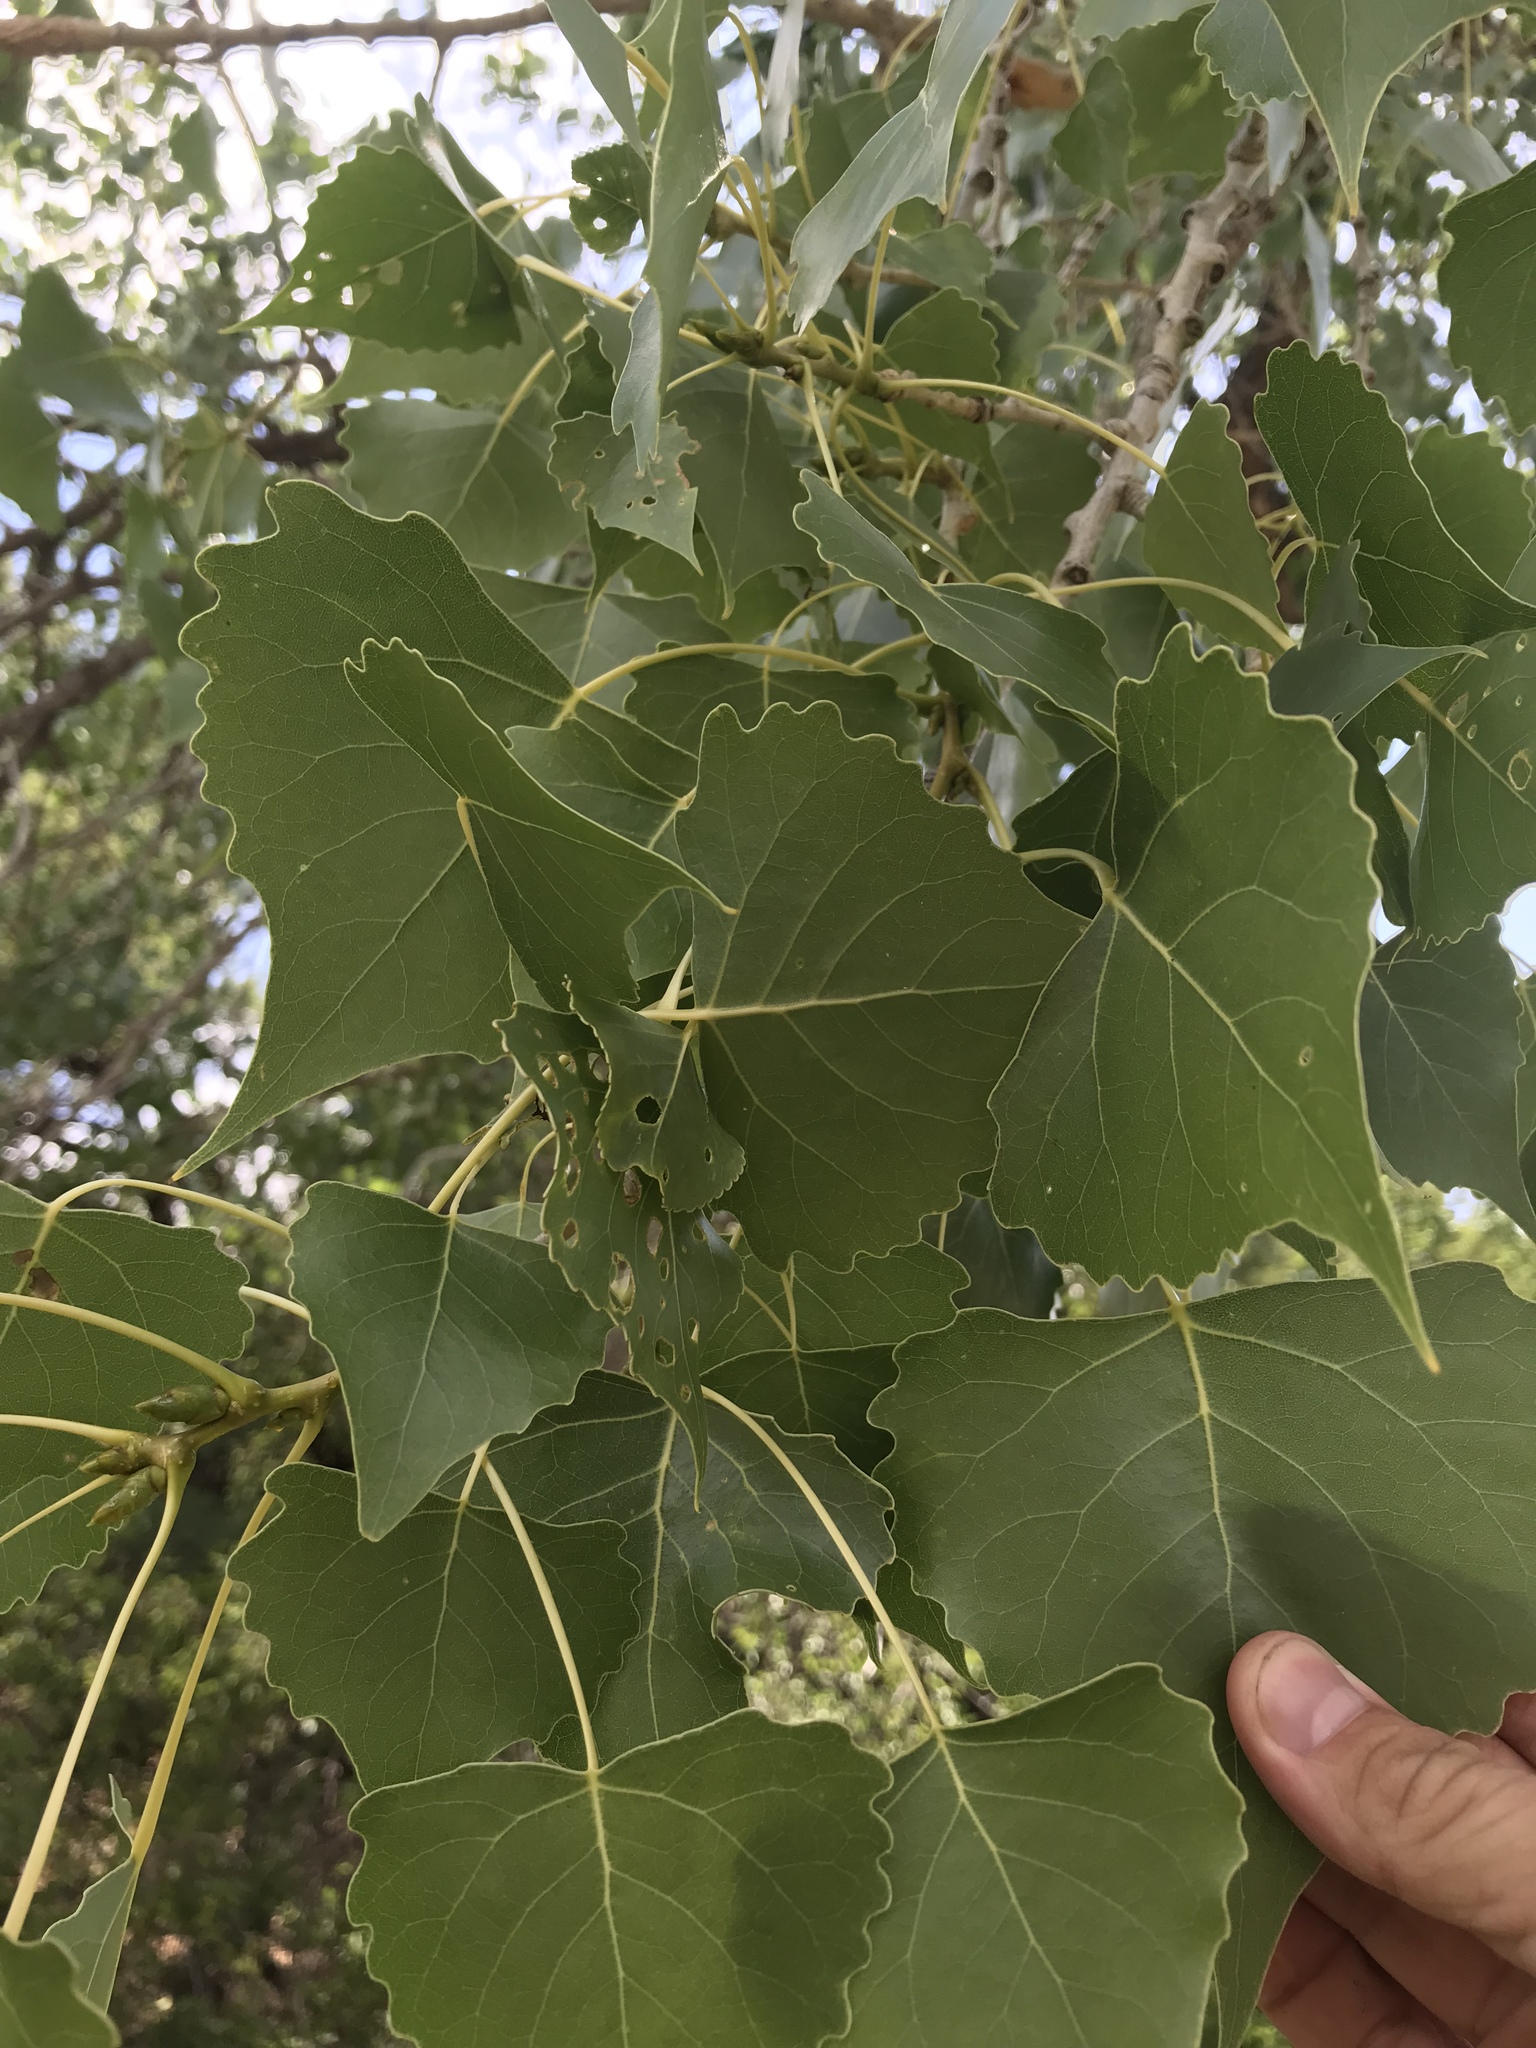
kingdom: Plantae
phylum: Tracheophyta
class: Magnoliopsida
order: Malpighiales
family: Salicaceae
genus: Populus
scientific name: Populus deltoides
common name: Eastern cottonwood
